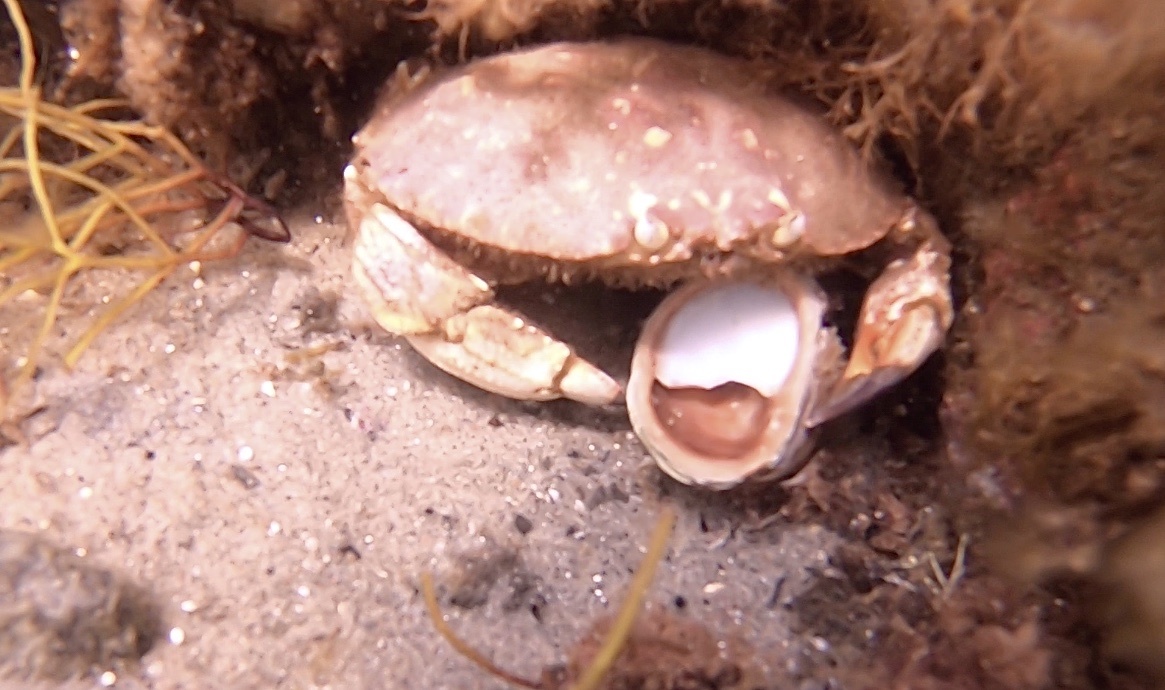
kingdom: Animalia
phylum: Arthropoda
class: Malacostraca
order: Decapoda
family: Cancridae
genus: Cancer
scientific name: Cancer borealis
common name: Jonah crab
